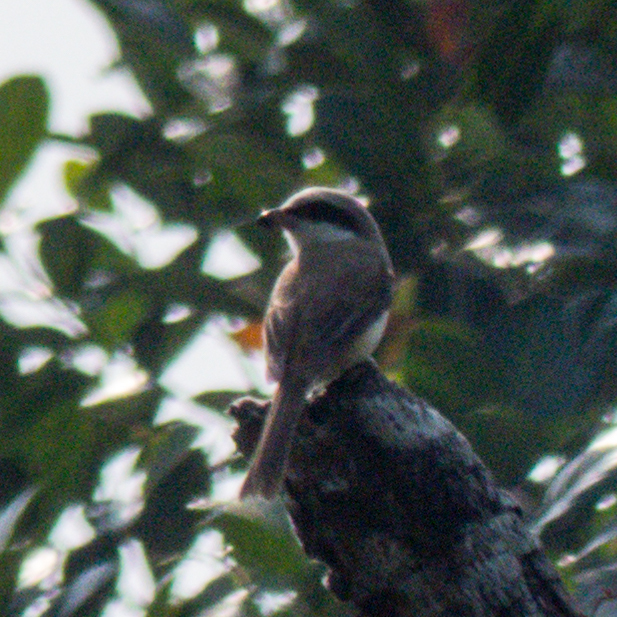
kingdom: Animalia
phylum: Chordata
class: Aves
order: Passeriformes
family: Laniidae
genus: Lanius
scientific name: Lanius cristatus
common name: Brown shrike
